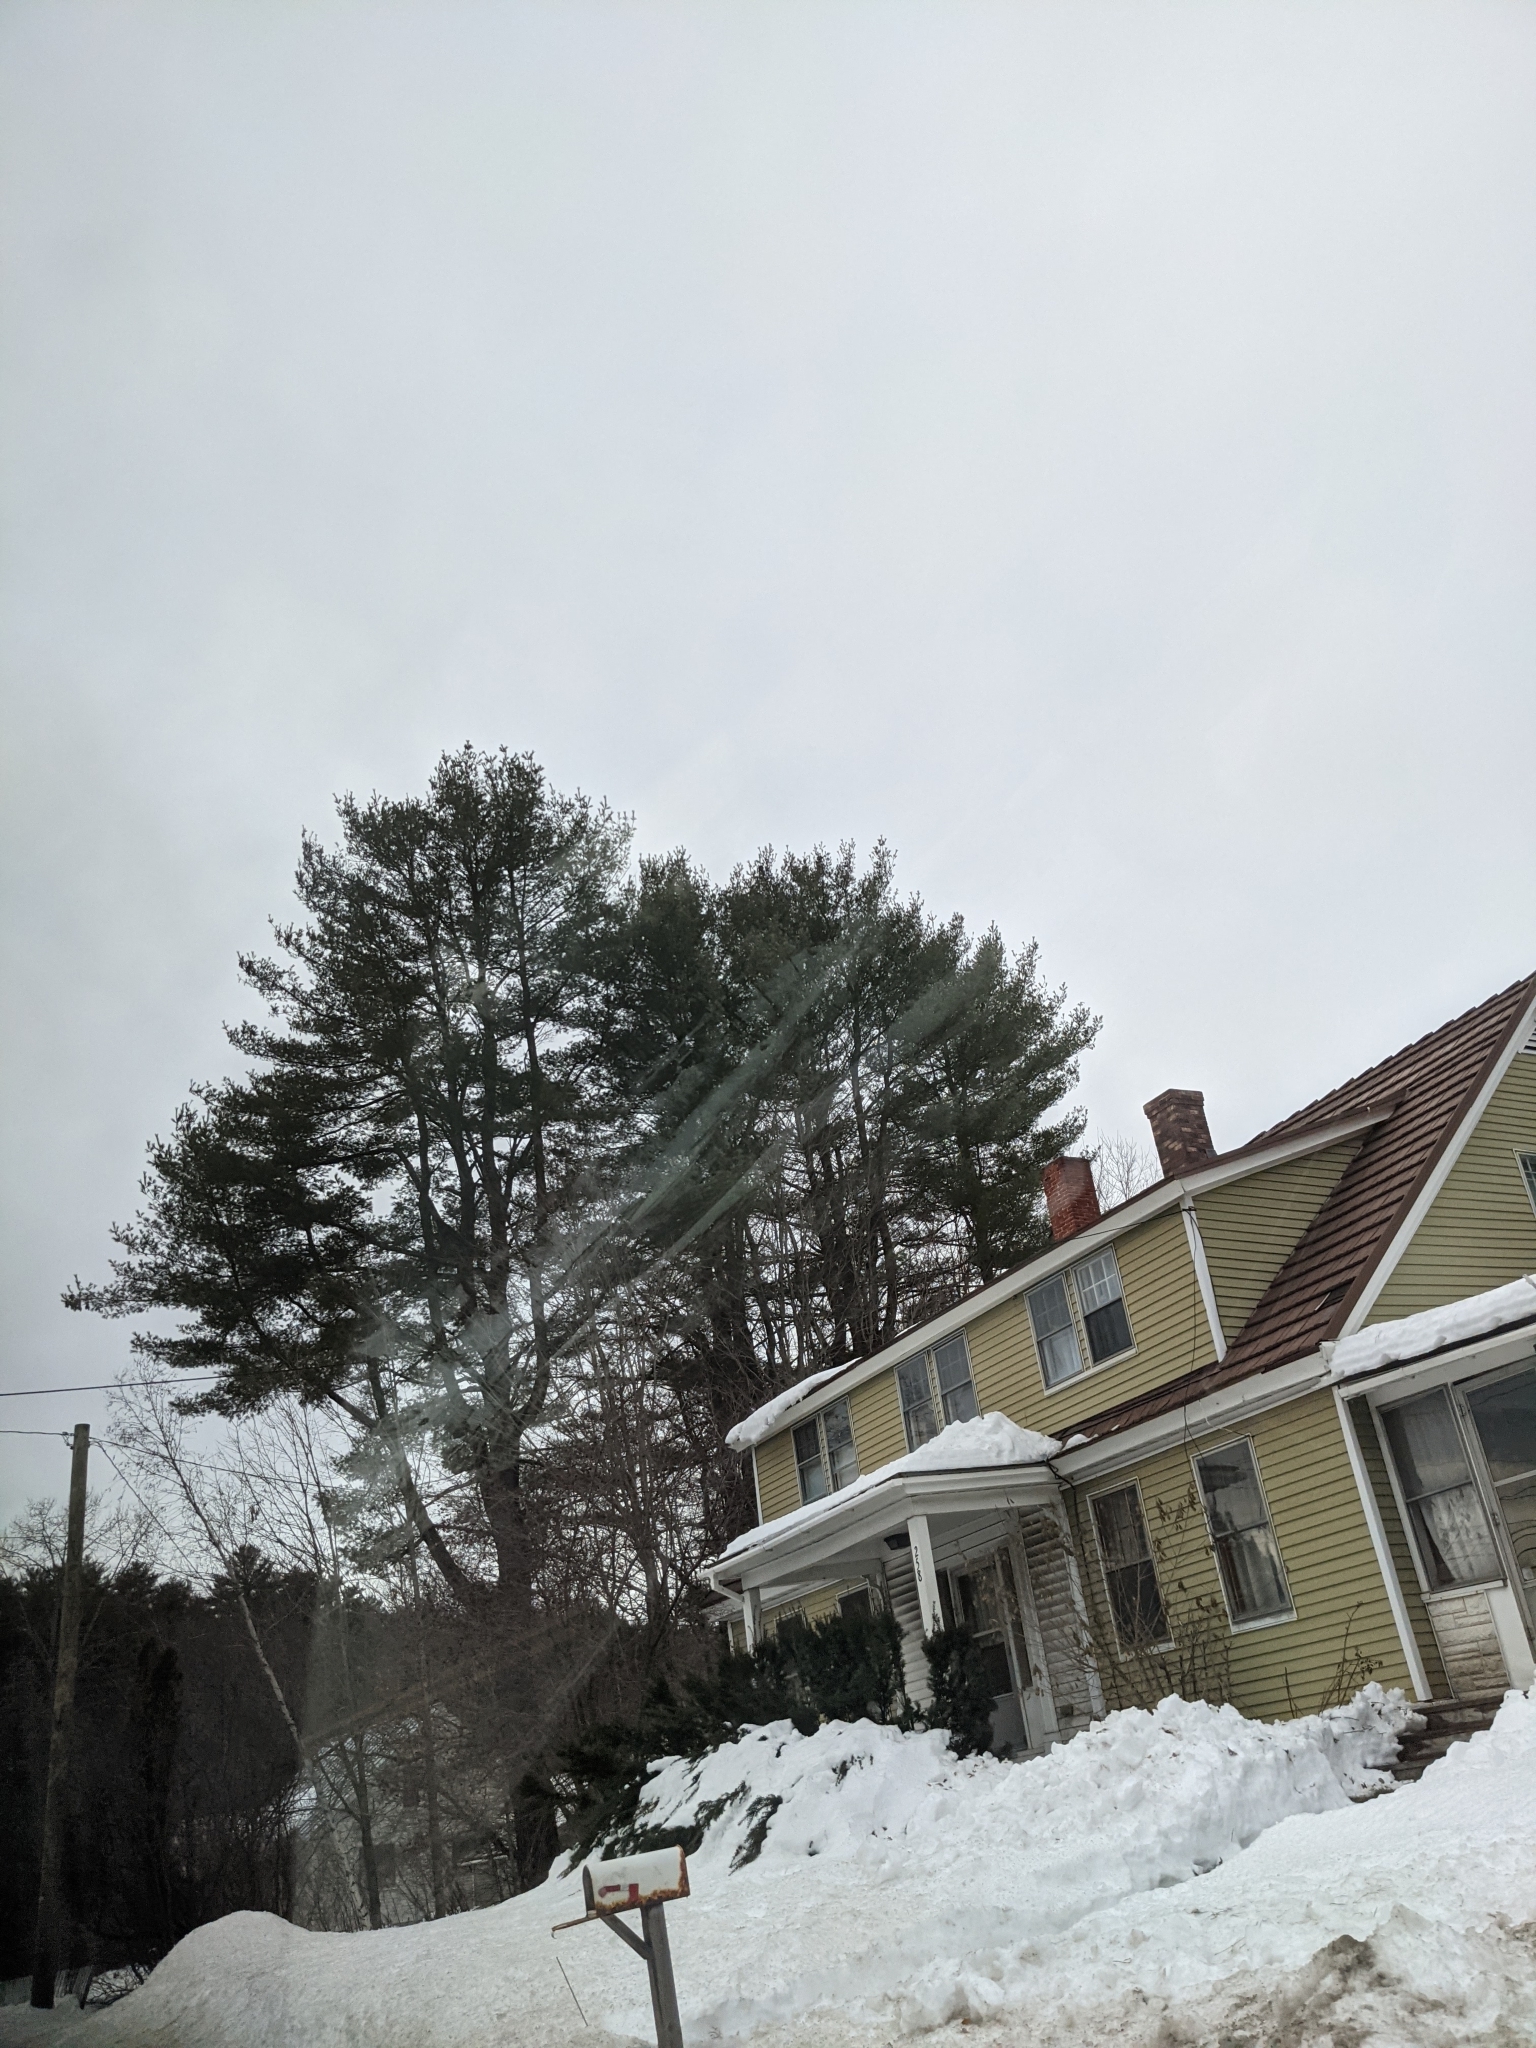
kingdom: Plantae
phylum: Tracheophyta
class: Pinopsida
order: Pinales
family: Pinaceae
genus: Pinus
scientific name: Pinus strobus
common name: Weymouth pine
